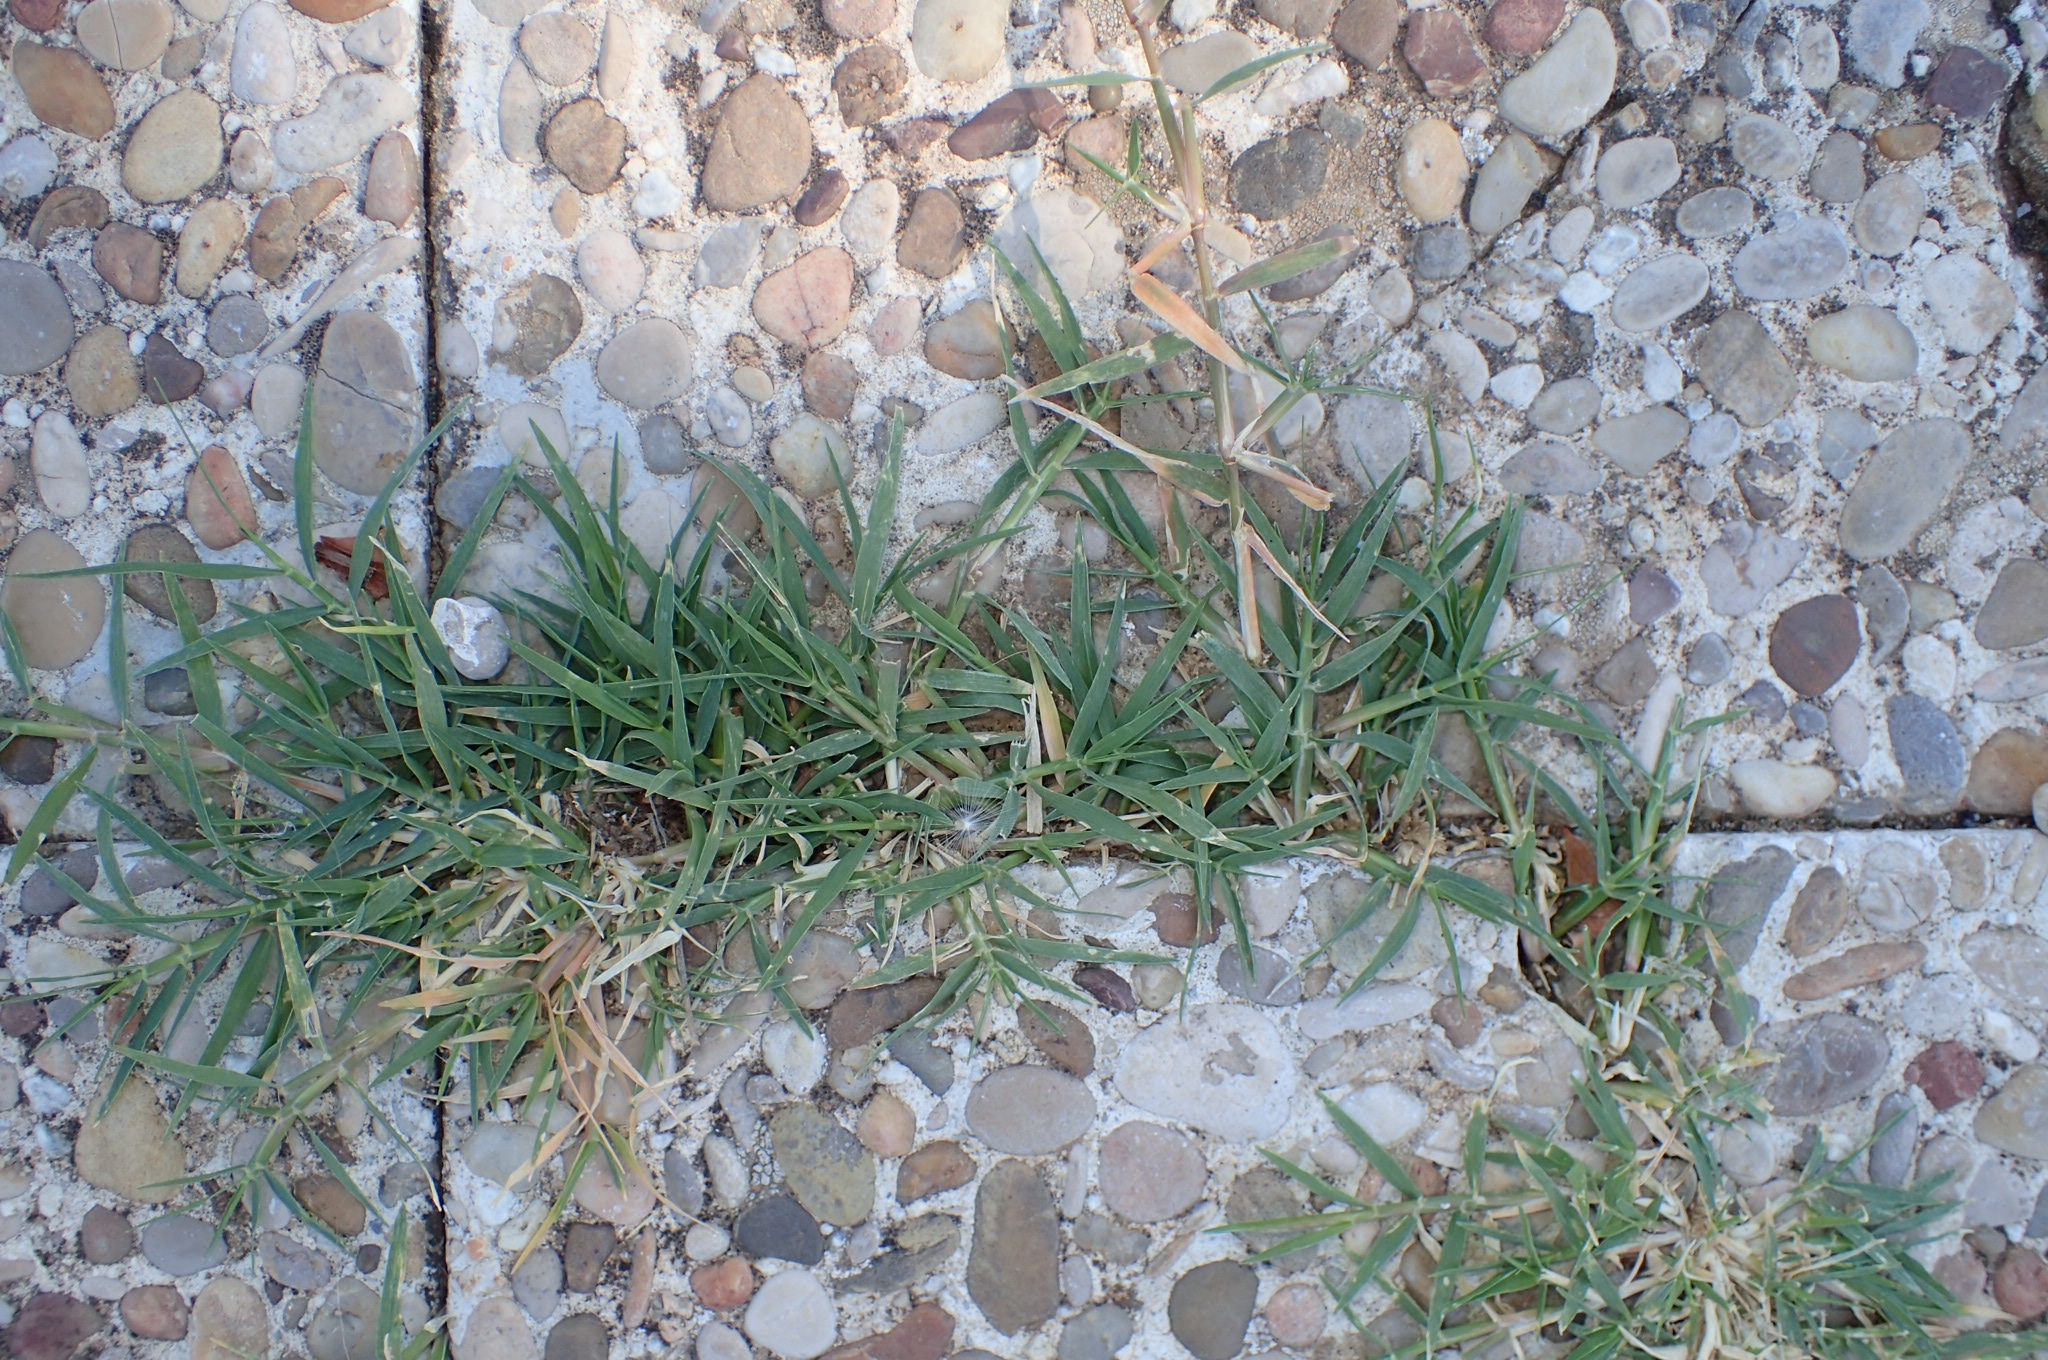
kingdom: Plantae
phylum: Tracheophyta
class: Liliopsida
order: Poales
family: Poaceae
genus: Cynodon
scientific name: Cynodon dactylon
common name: Bermuda grass
